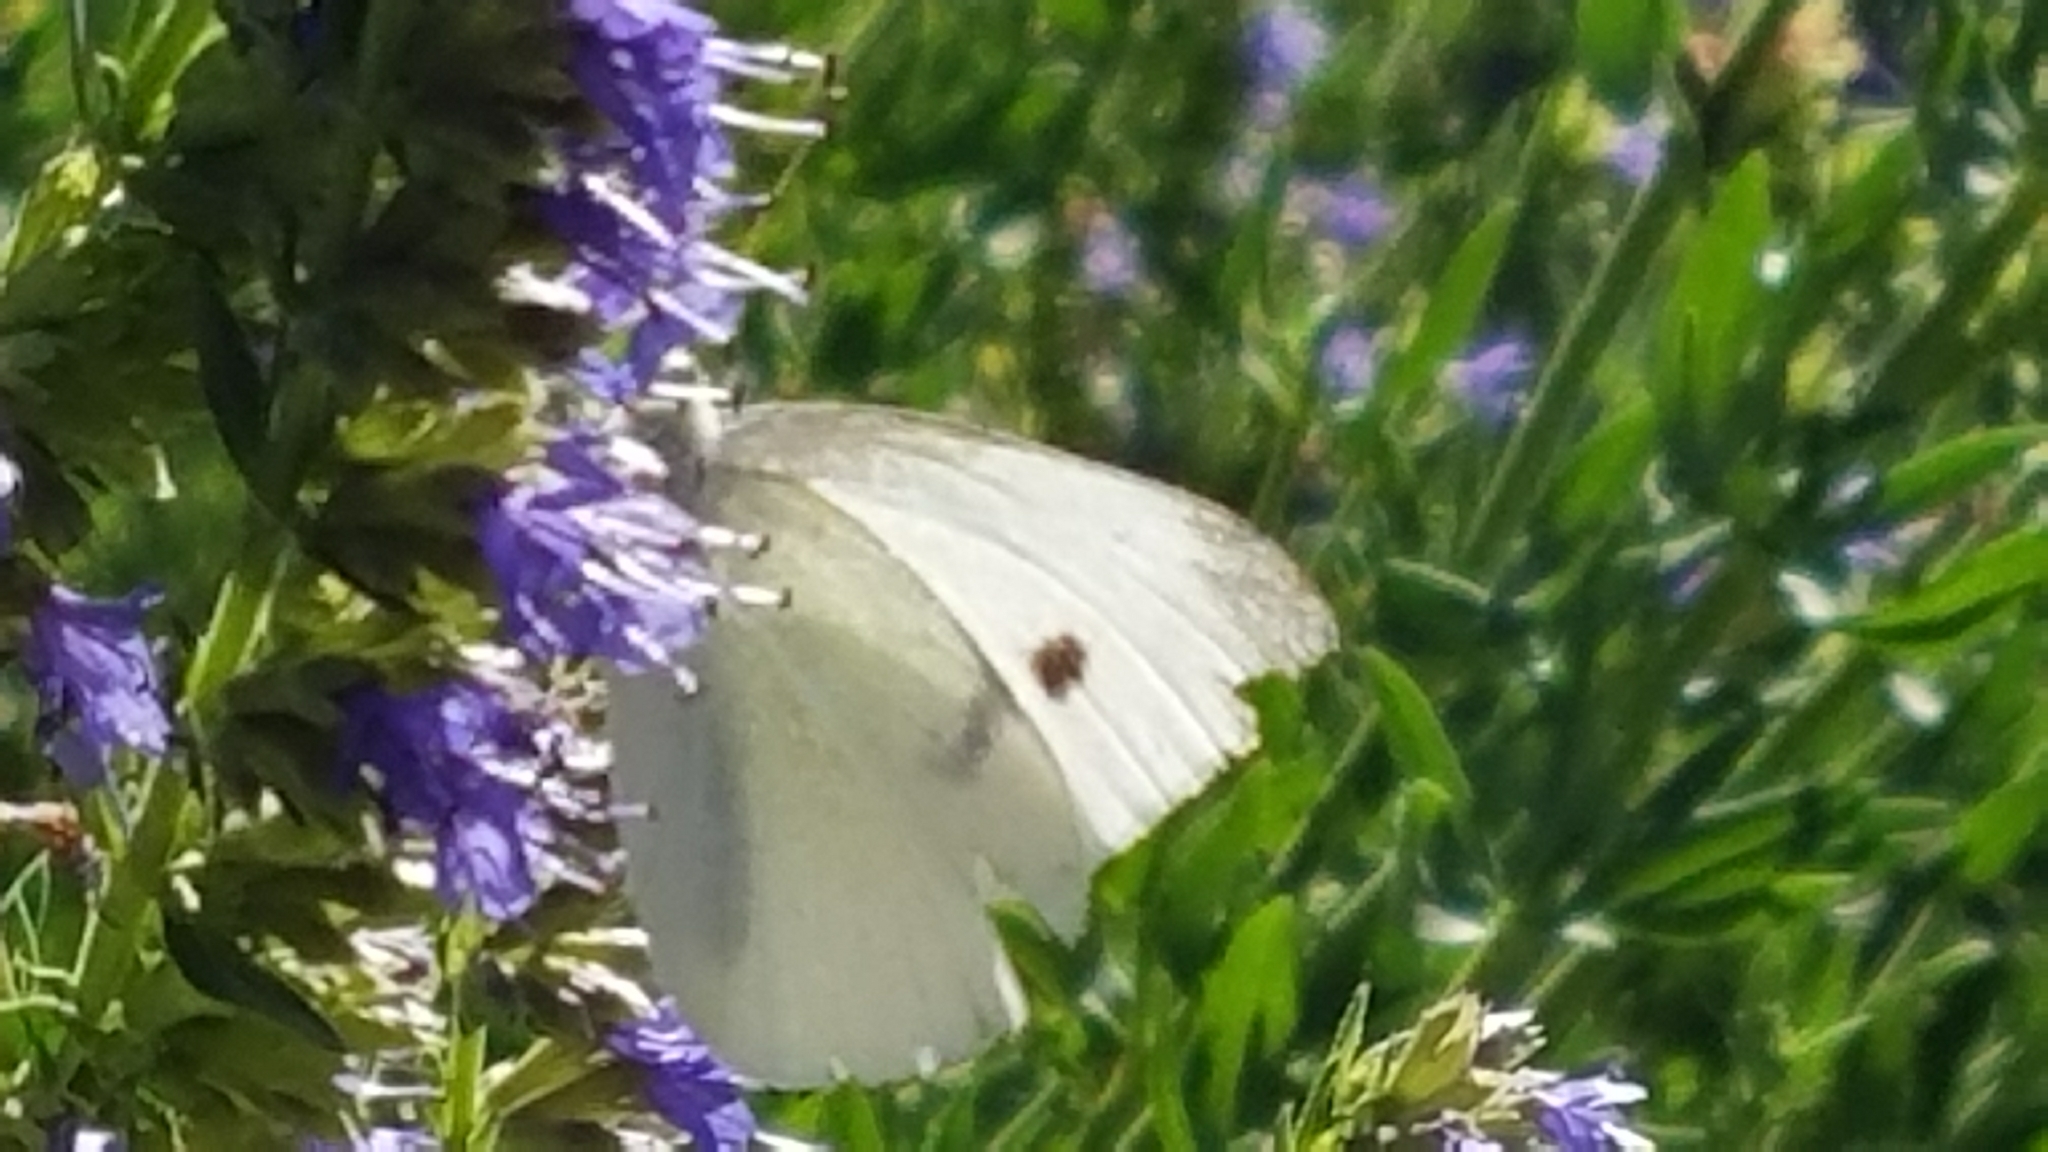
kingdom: Animalia
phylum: Arthropoda
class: Insecta
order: Lepidoptera
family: Pieridae
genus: Pieris
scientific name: Pieris rapae
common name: Small white
